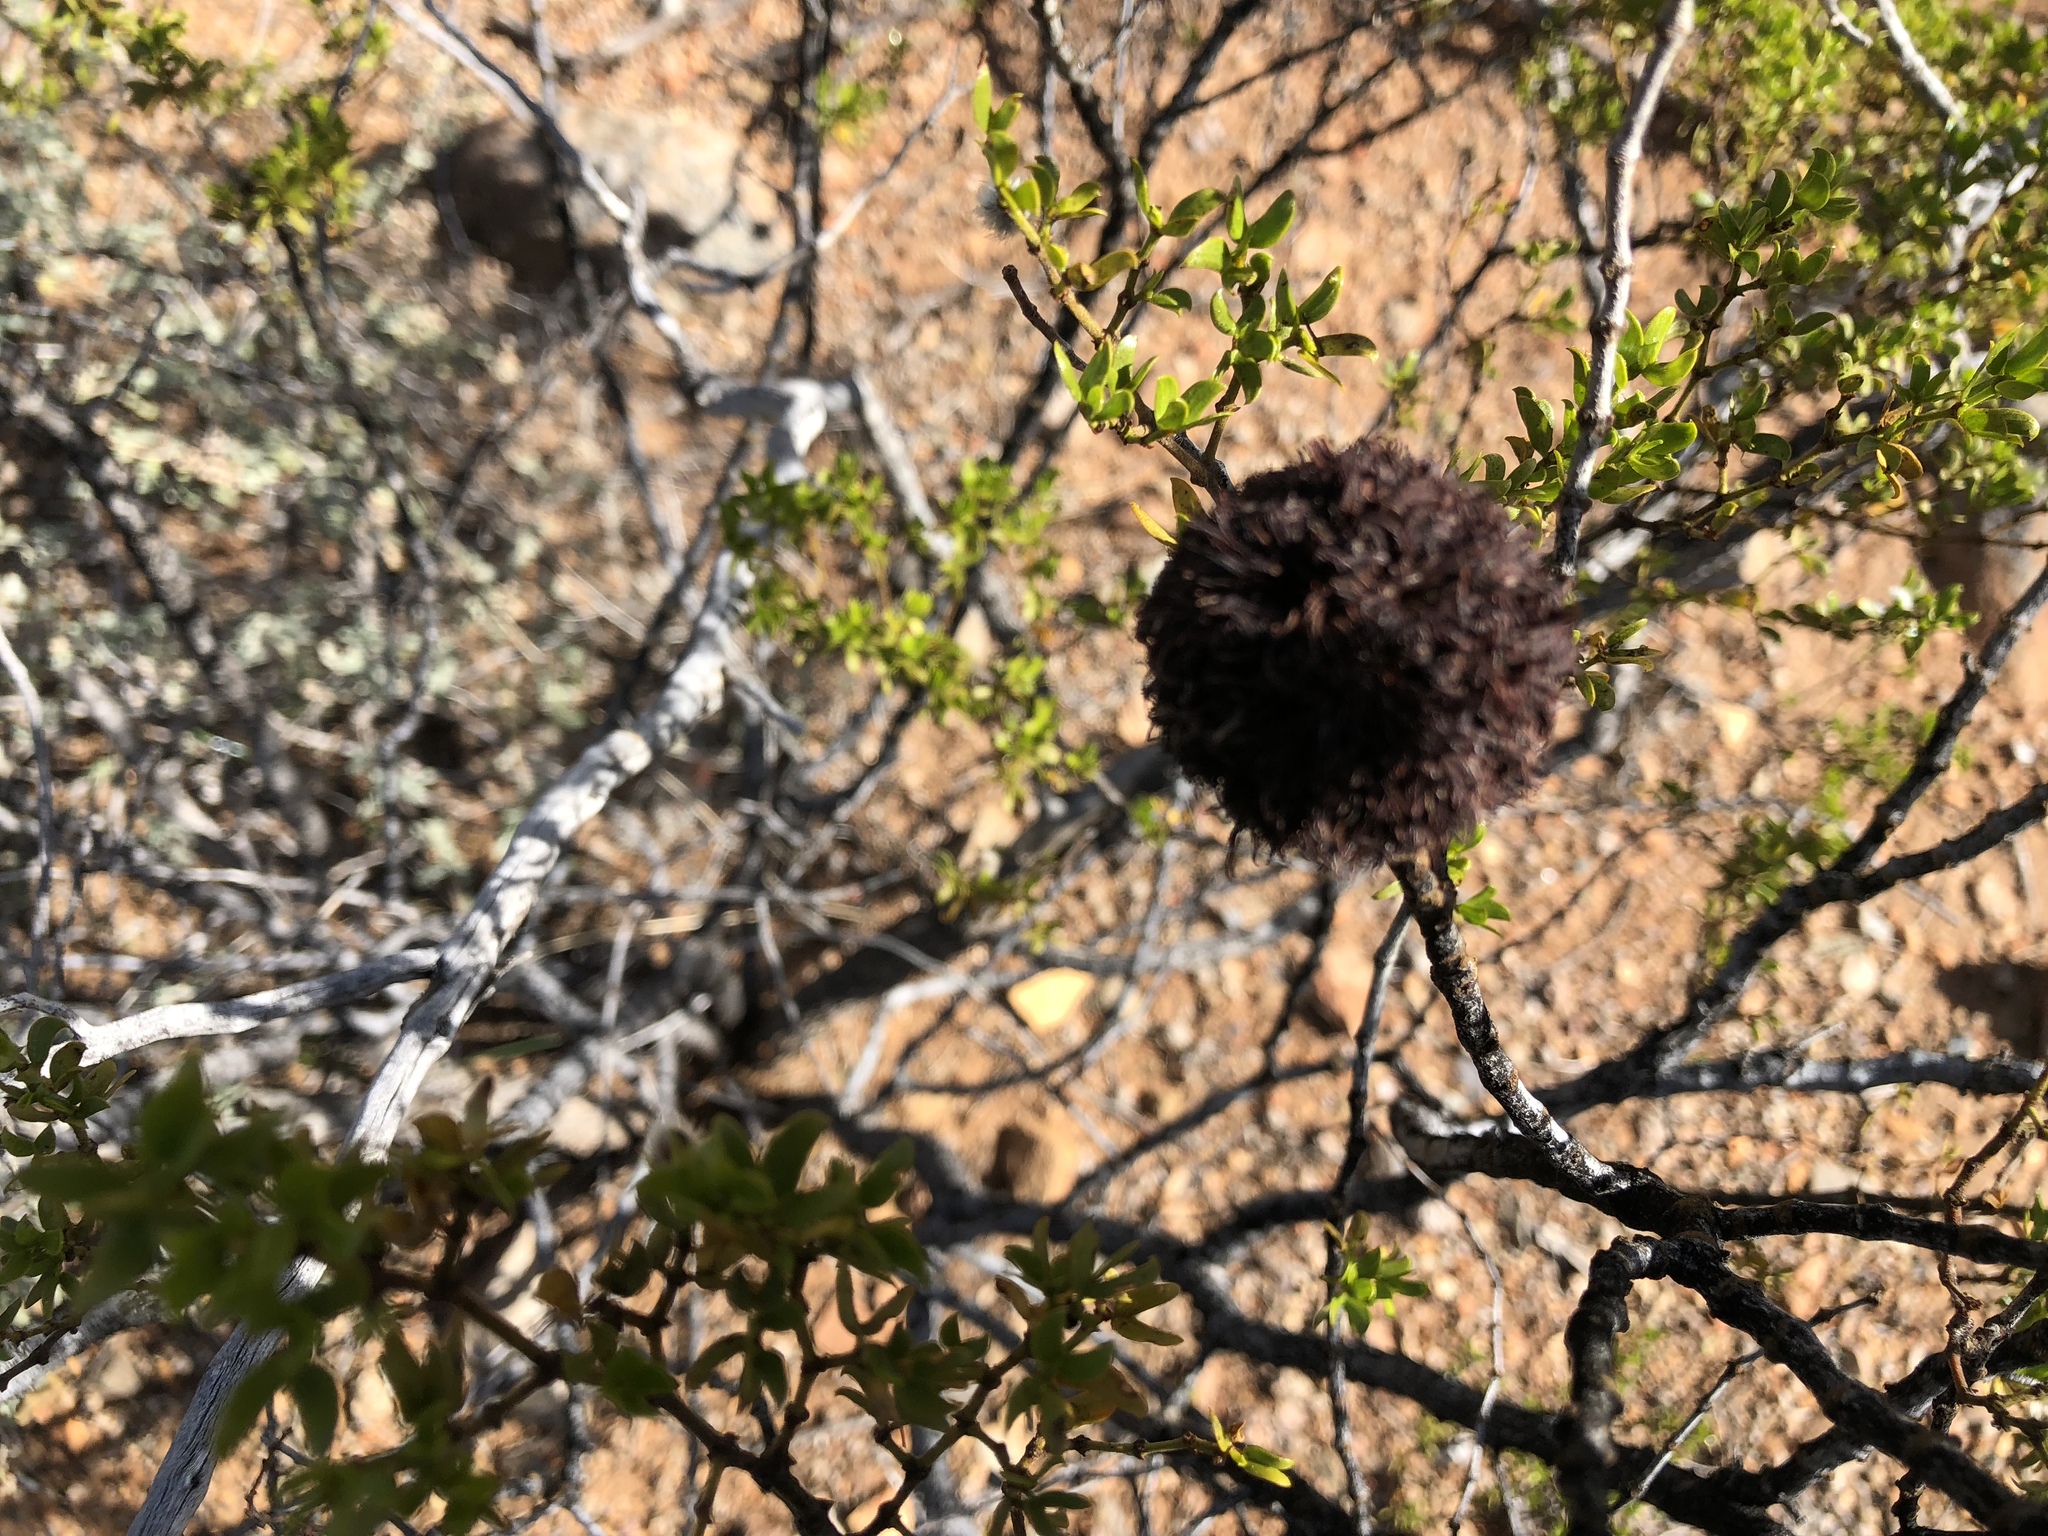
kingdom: Animalia
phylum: Arthropoda
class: Insecta
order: Diptera
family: Cecidomyiidae
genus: Asphondylia
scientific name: Asphondylia auripila
